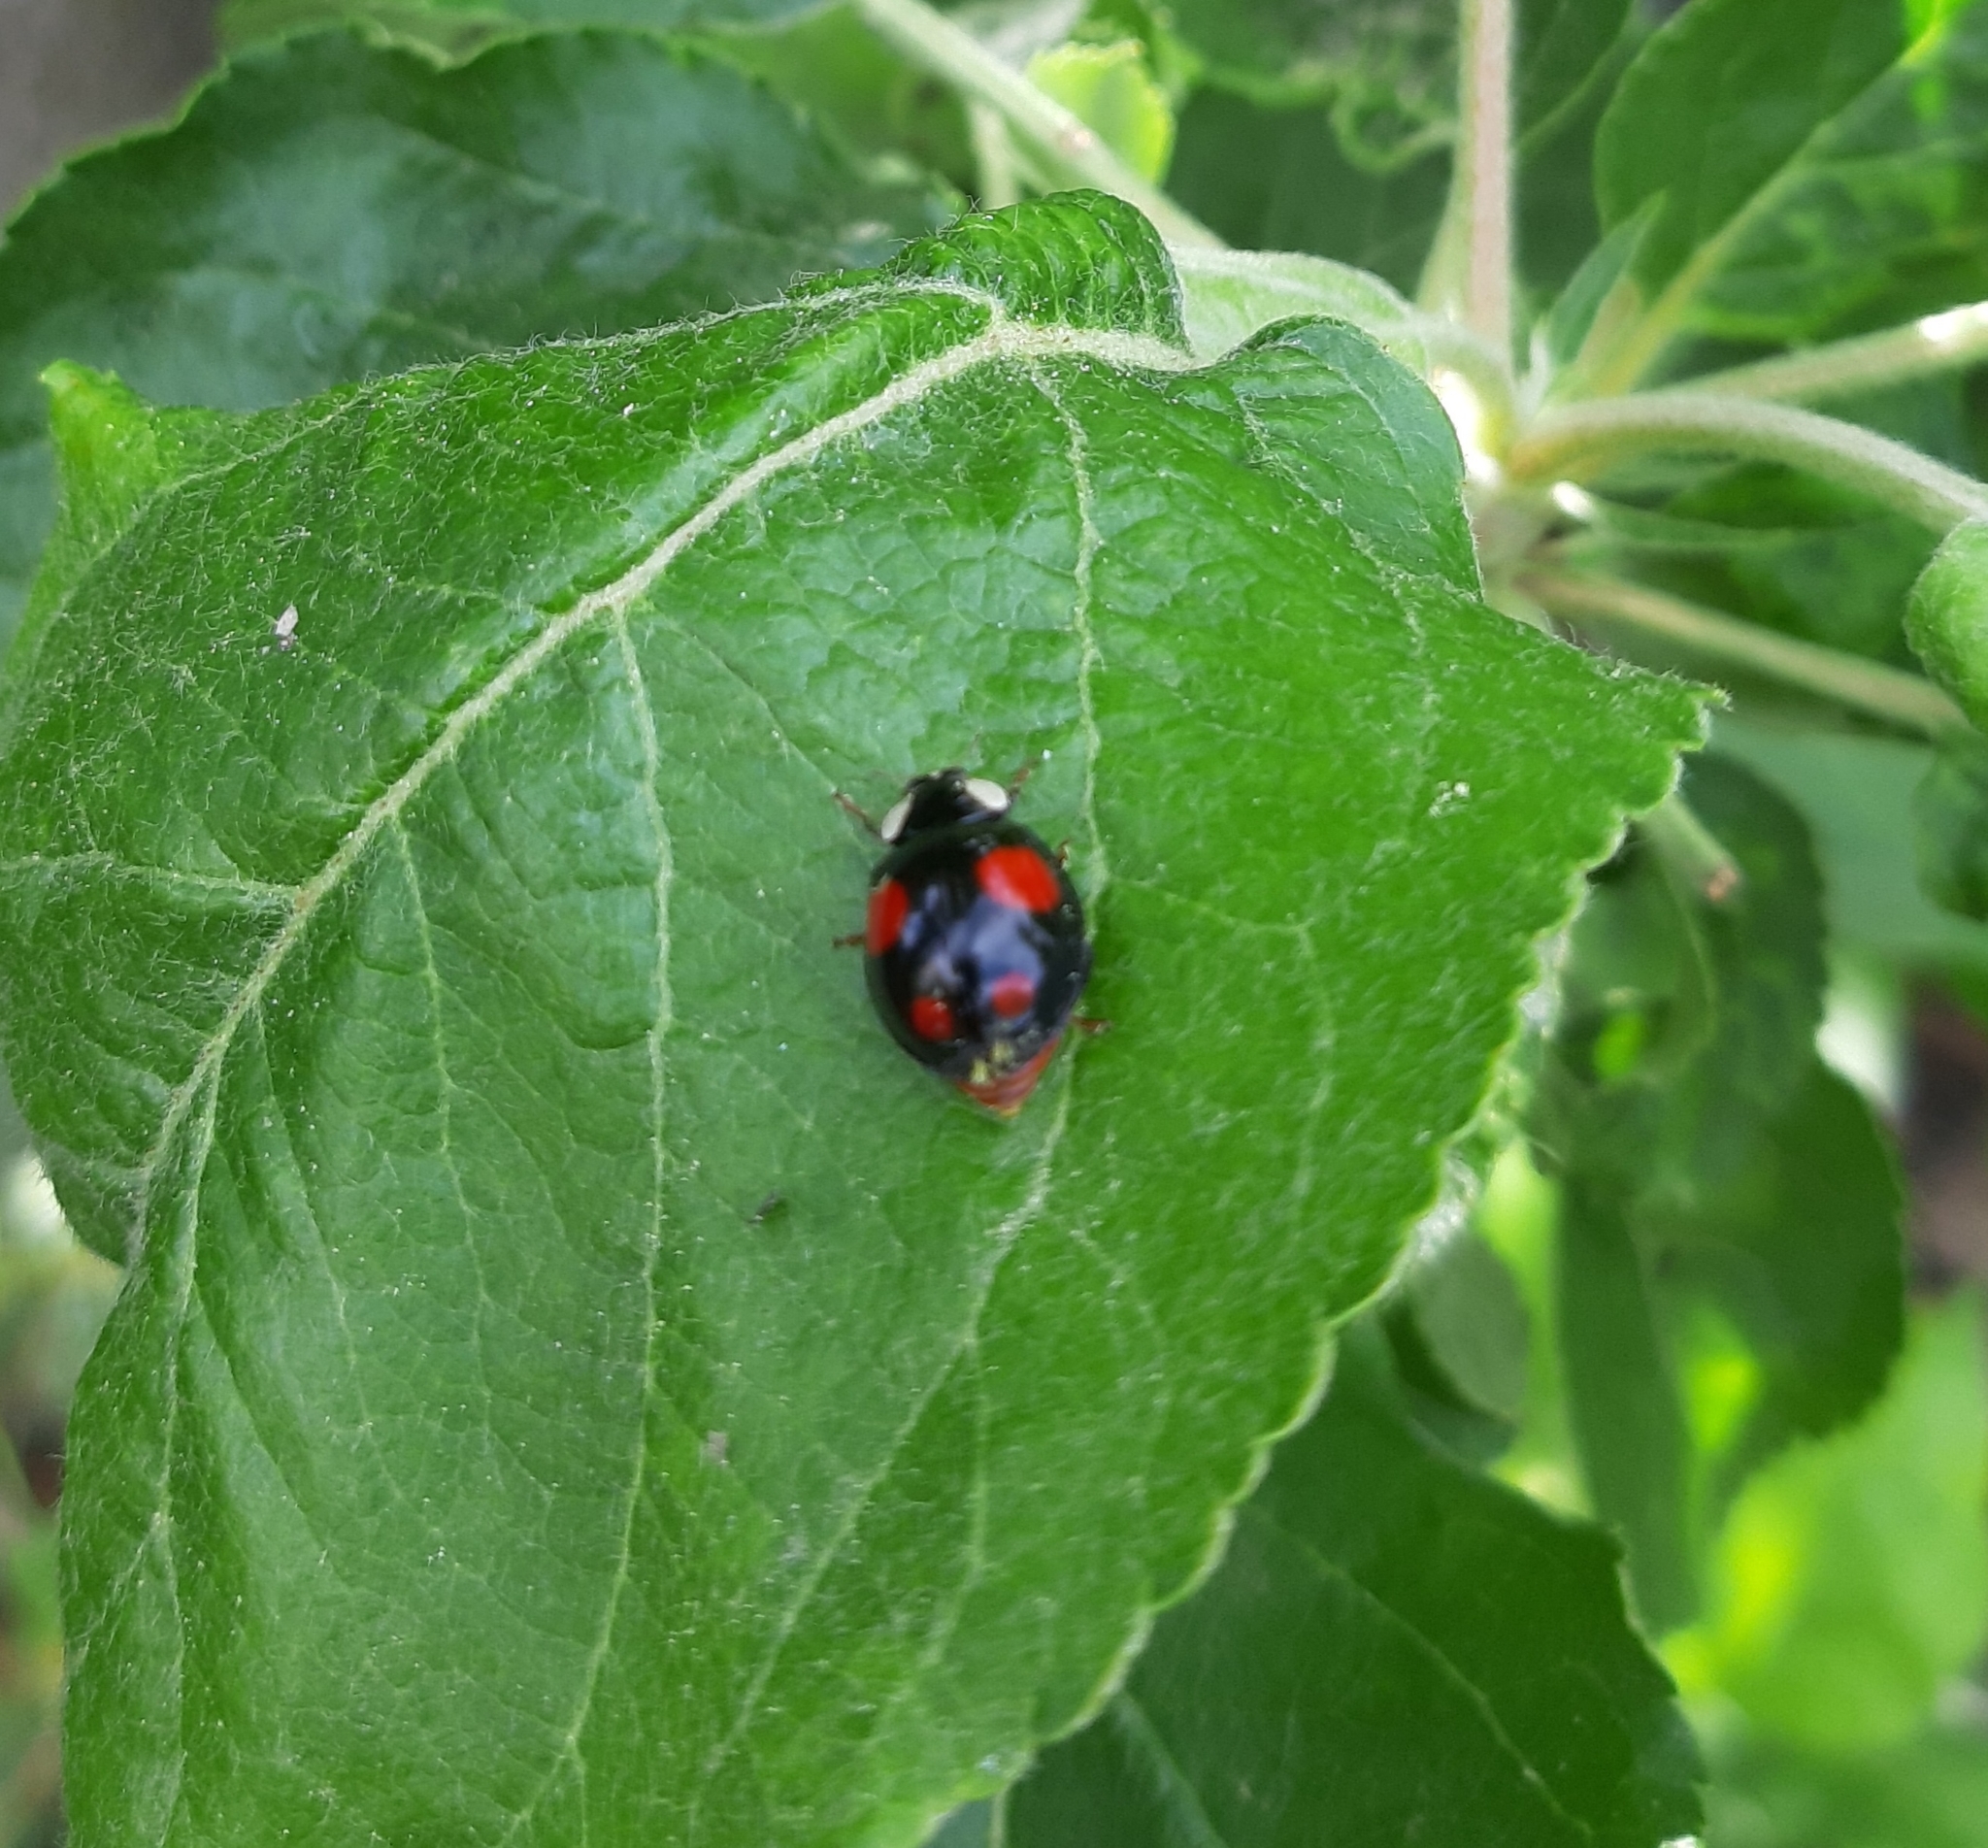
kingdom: Animalia
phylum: Arthropoda
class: Insecta
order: Coleoptera
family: Coccinellidae
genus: Harmonia
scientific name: Harmonia axyridis
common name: Harlequin ladybird
